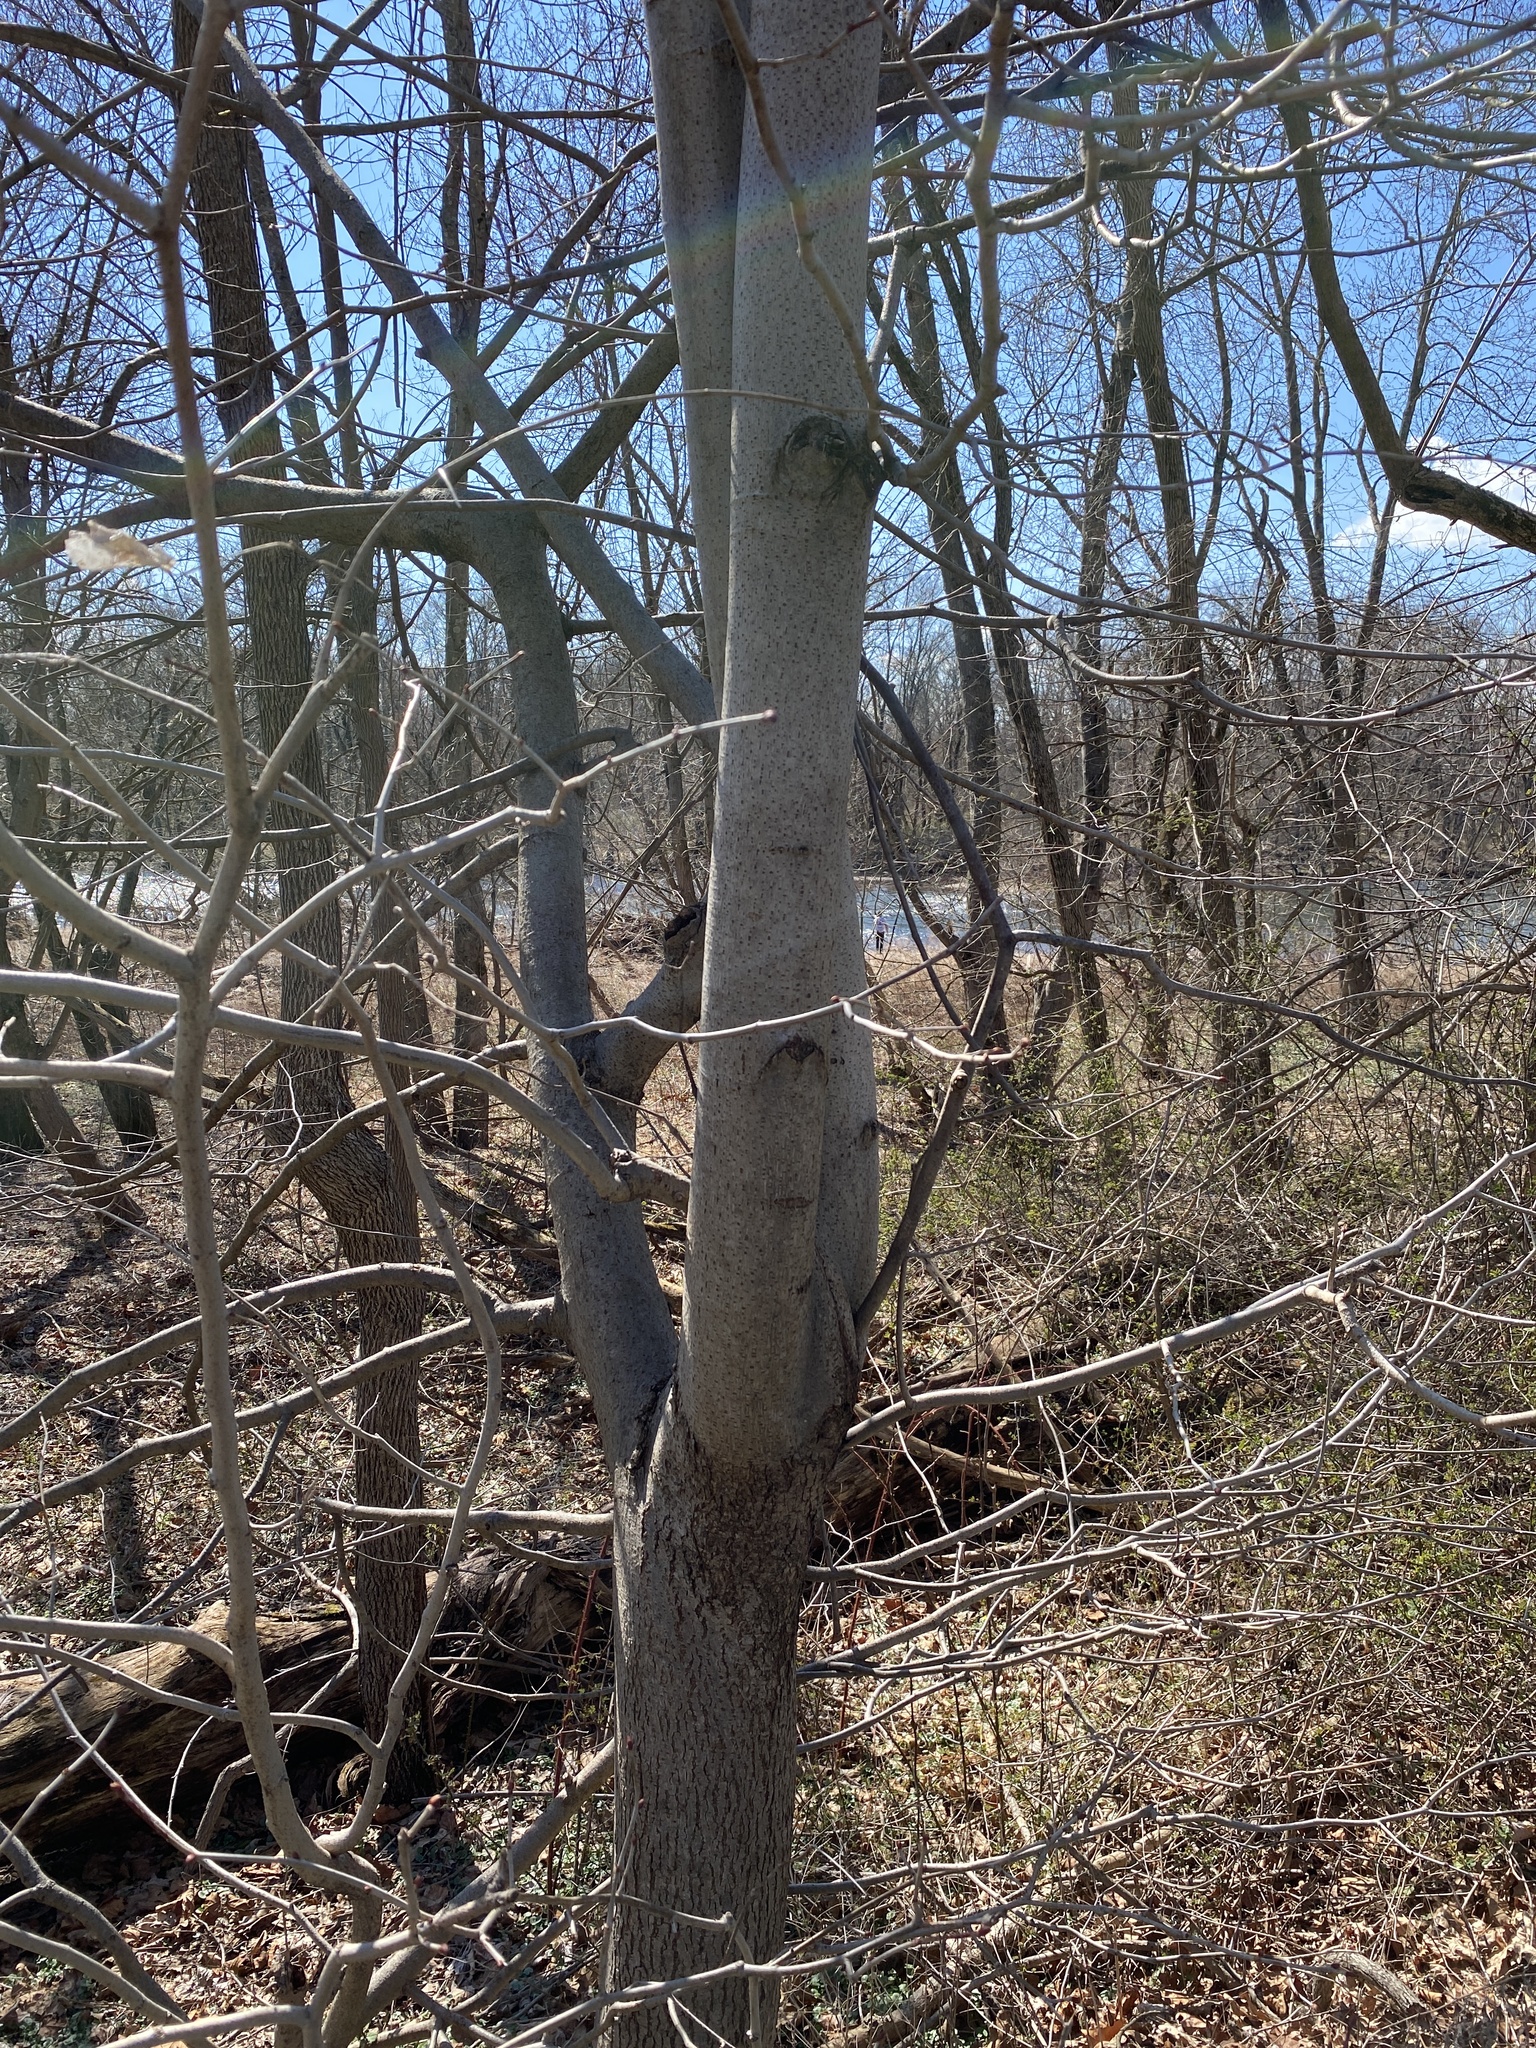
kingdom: Plantae
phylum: Tracheophyta
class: Magnoliopsida
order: Malvales
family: Malvaceae
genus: Tilia
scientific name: Tilia americana
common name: Basswood
